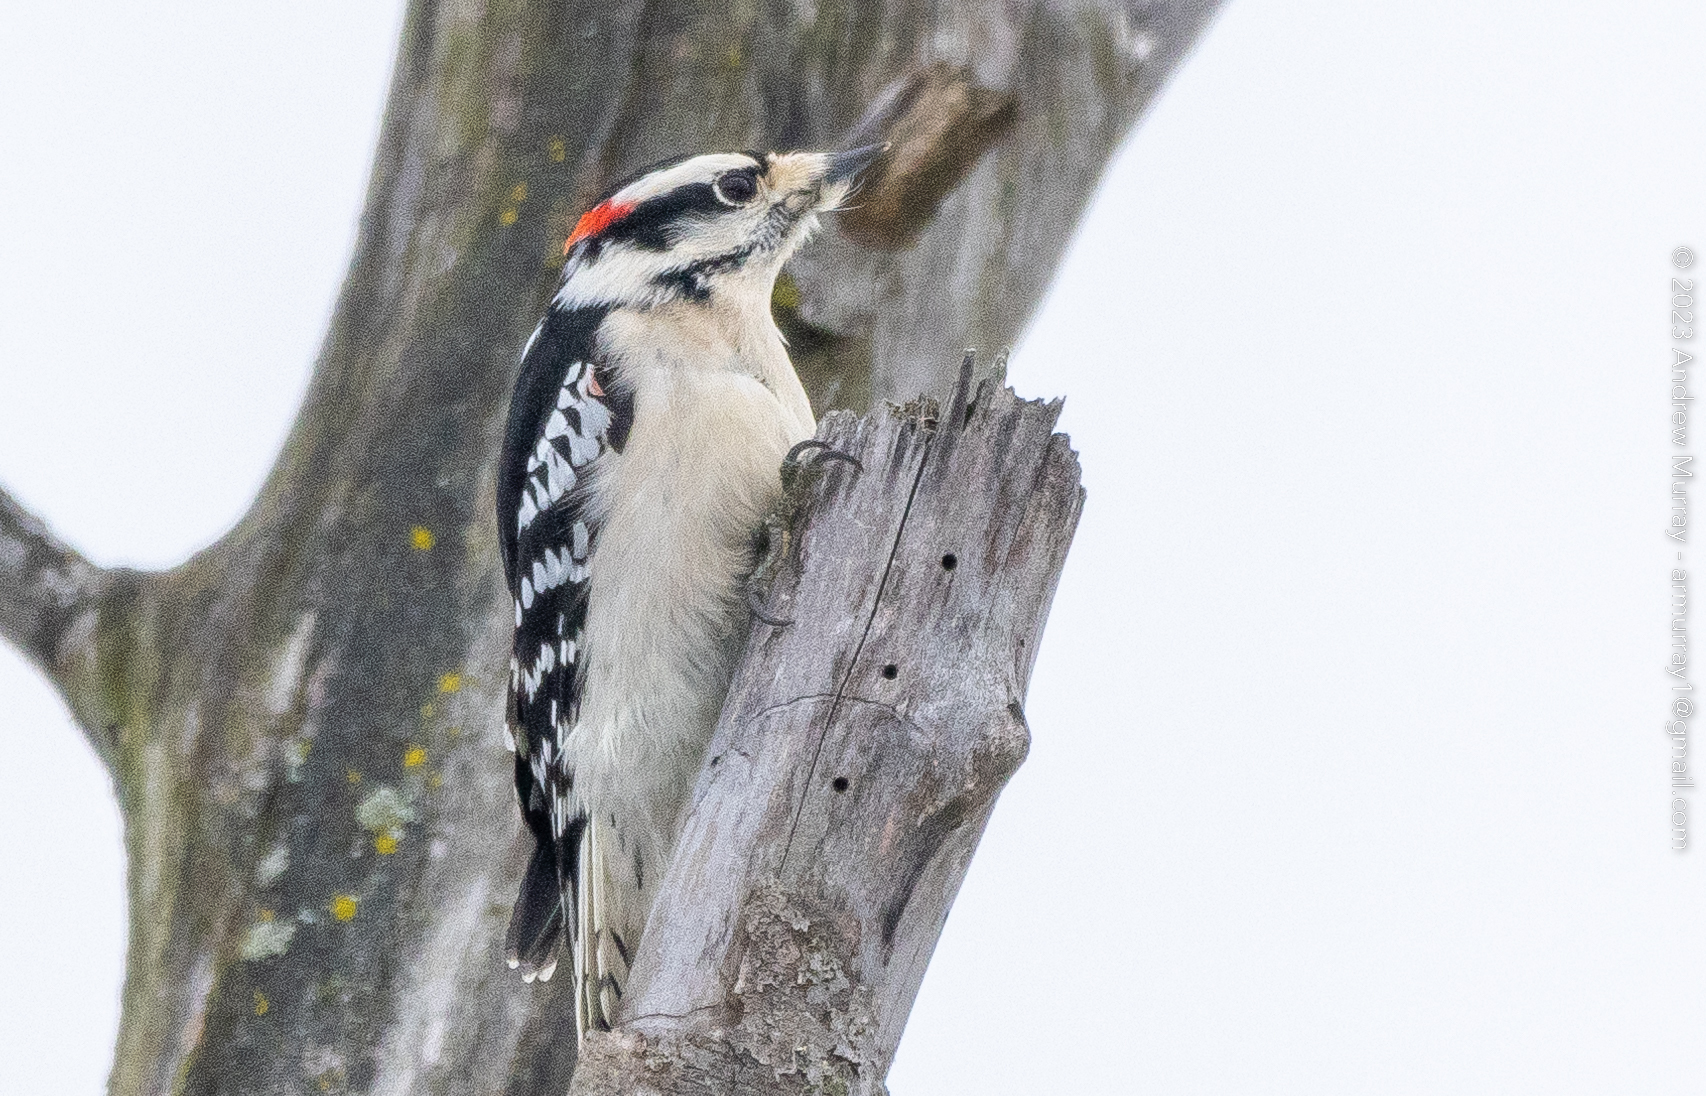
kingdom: Animalia
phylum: Chordata
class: Aves
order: Piciformes
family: Picidae
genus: Dryobates
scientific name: Dryobates pubescens
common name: Downy woodpecker
